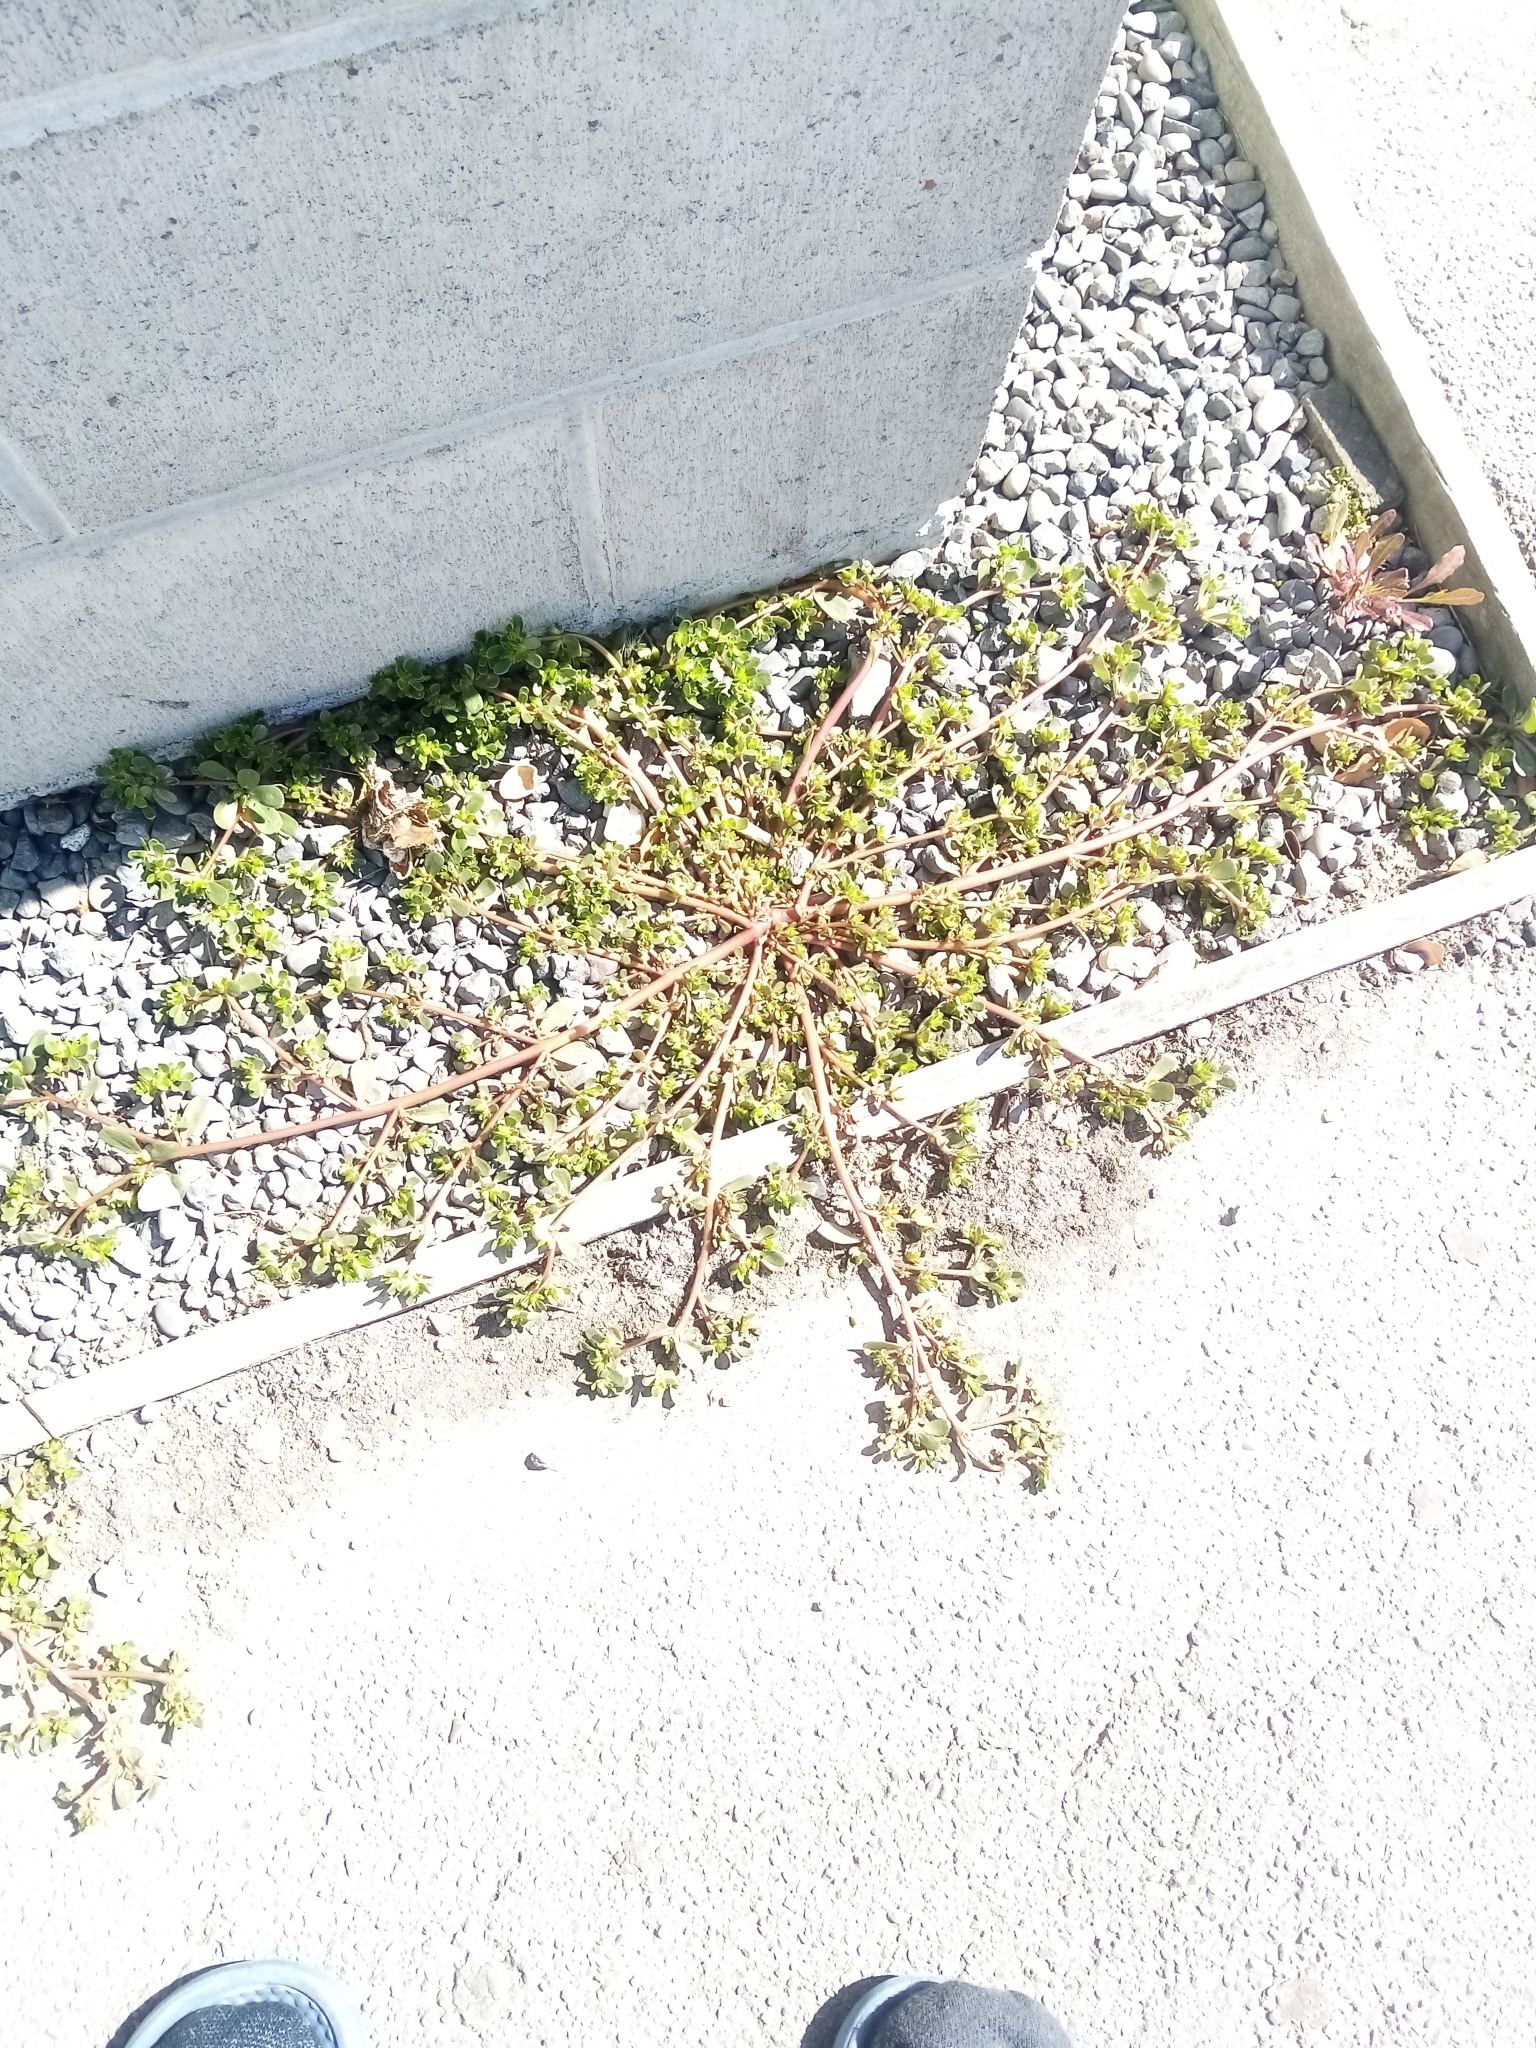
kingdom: Plantae
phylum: Tracheophyta
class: Magnoliopsida
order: Caryophyllales
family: Portulacaceae
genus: Portulaca
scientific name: Portulaca oleracea
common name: Common purslane
